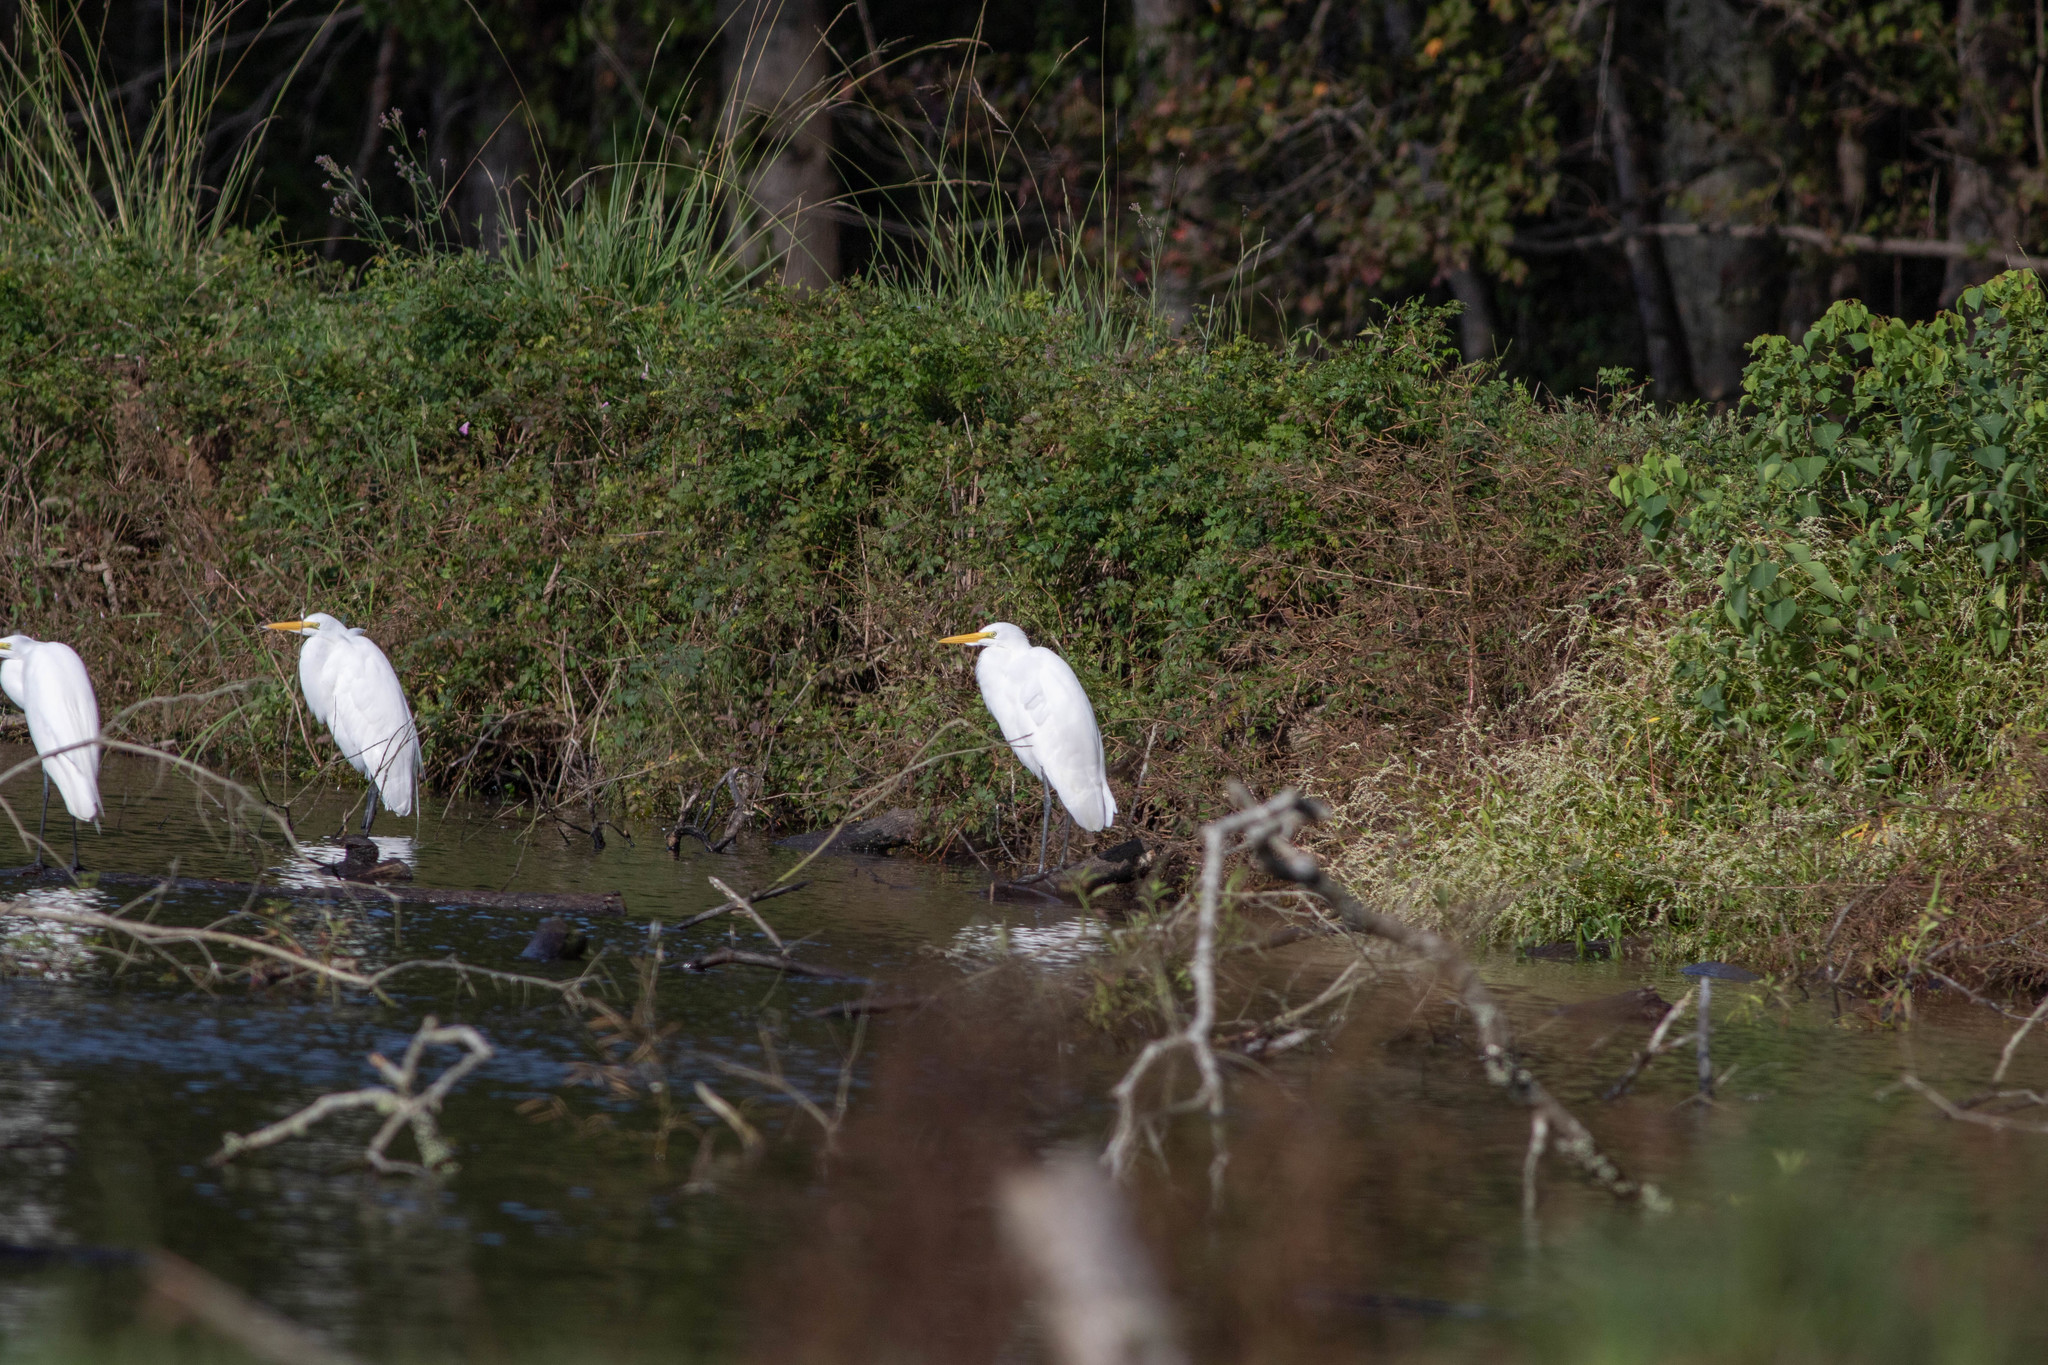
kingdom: Animalia
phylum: Chordata
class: Aves
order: Pelecaniformes
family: Ardeidae
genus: Ardea
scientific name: Ardea alba
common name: Great egret
